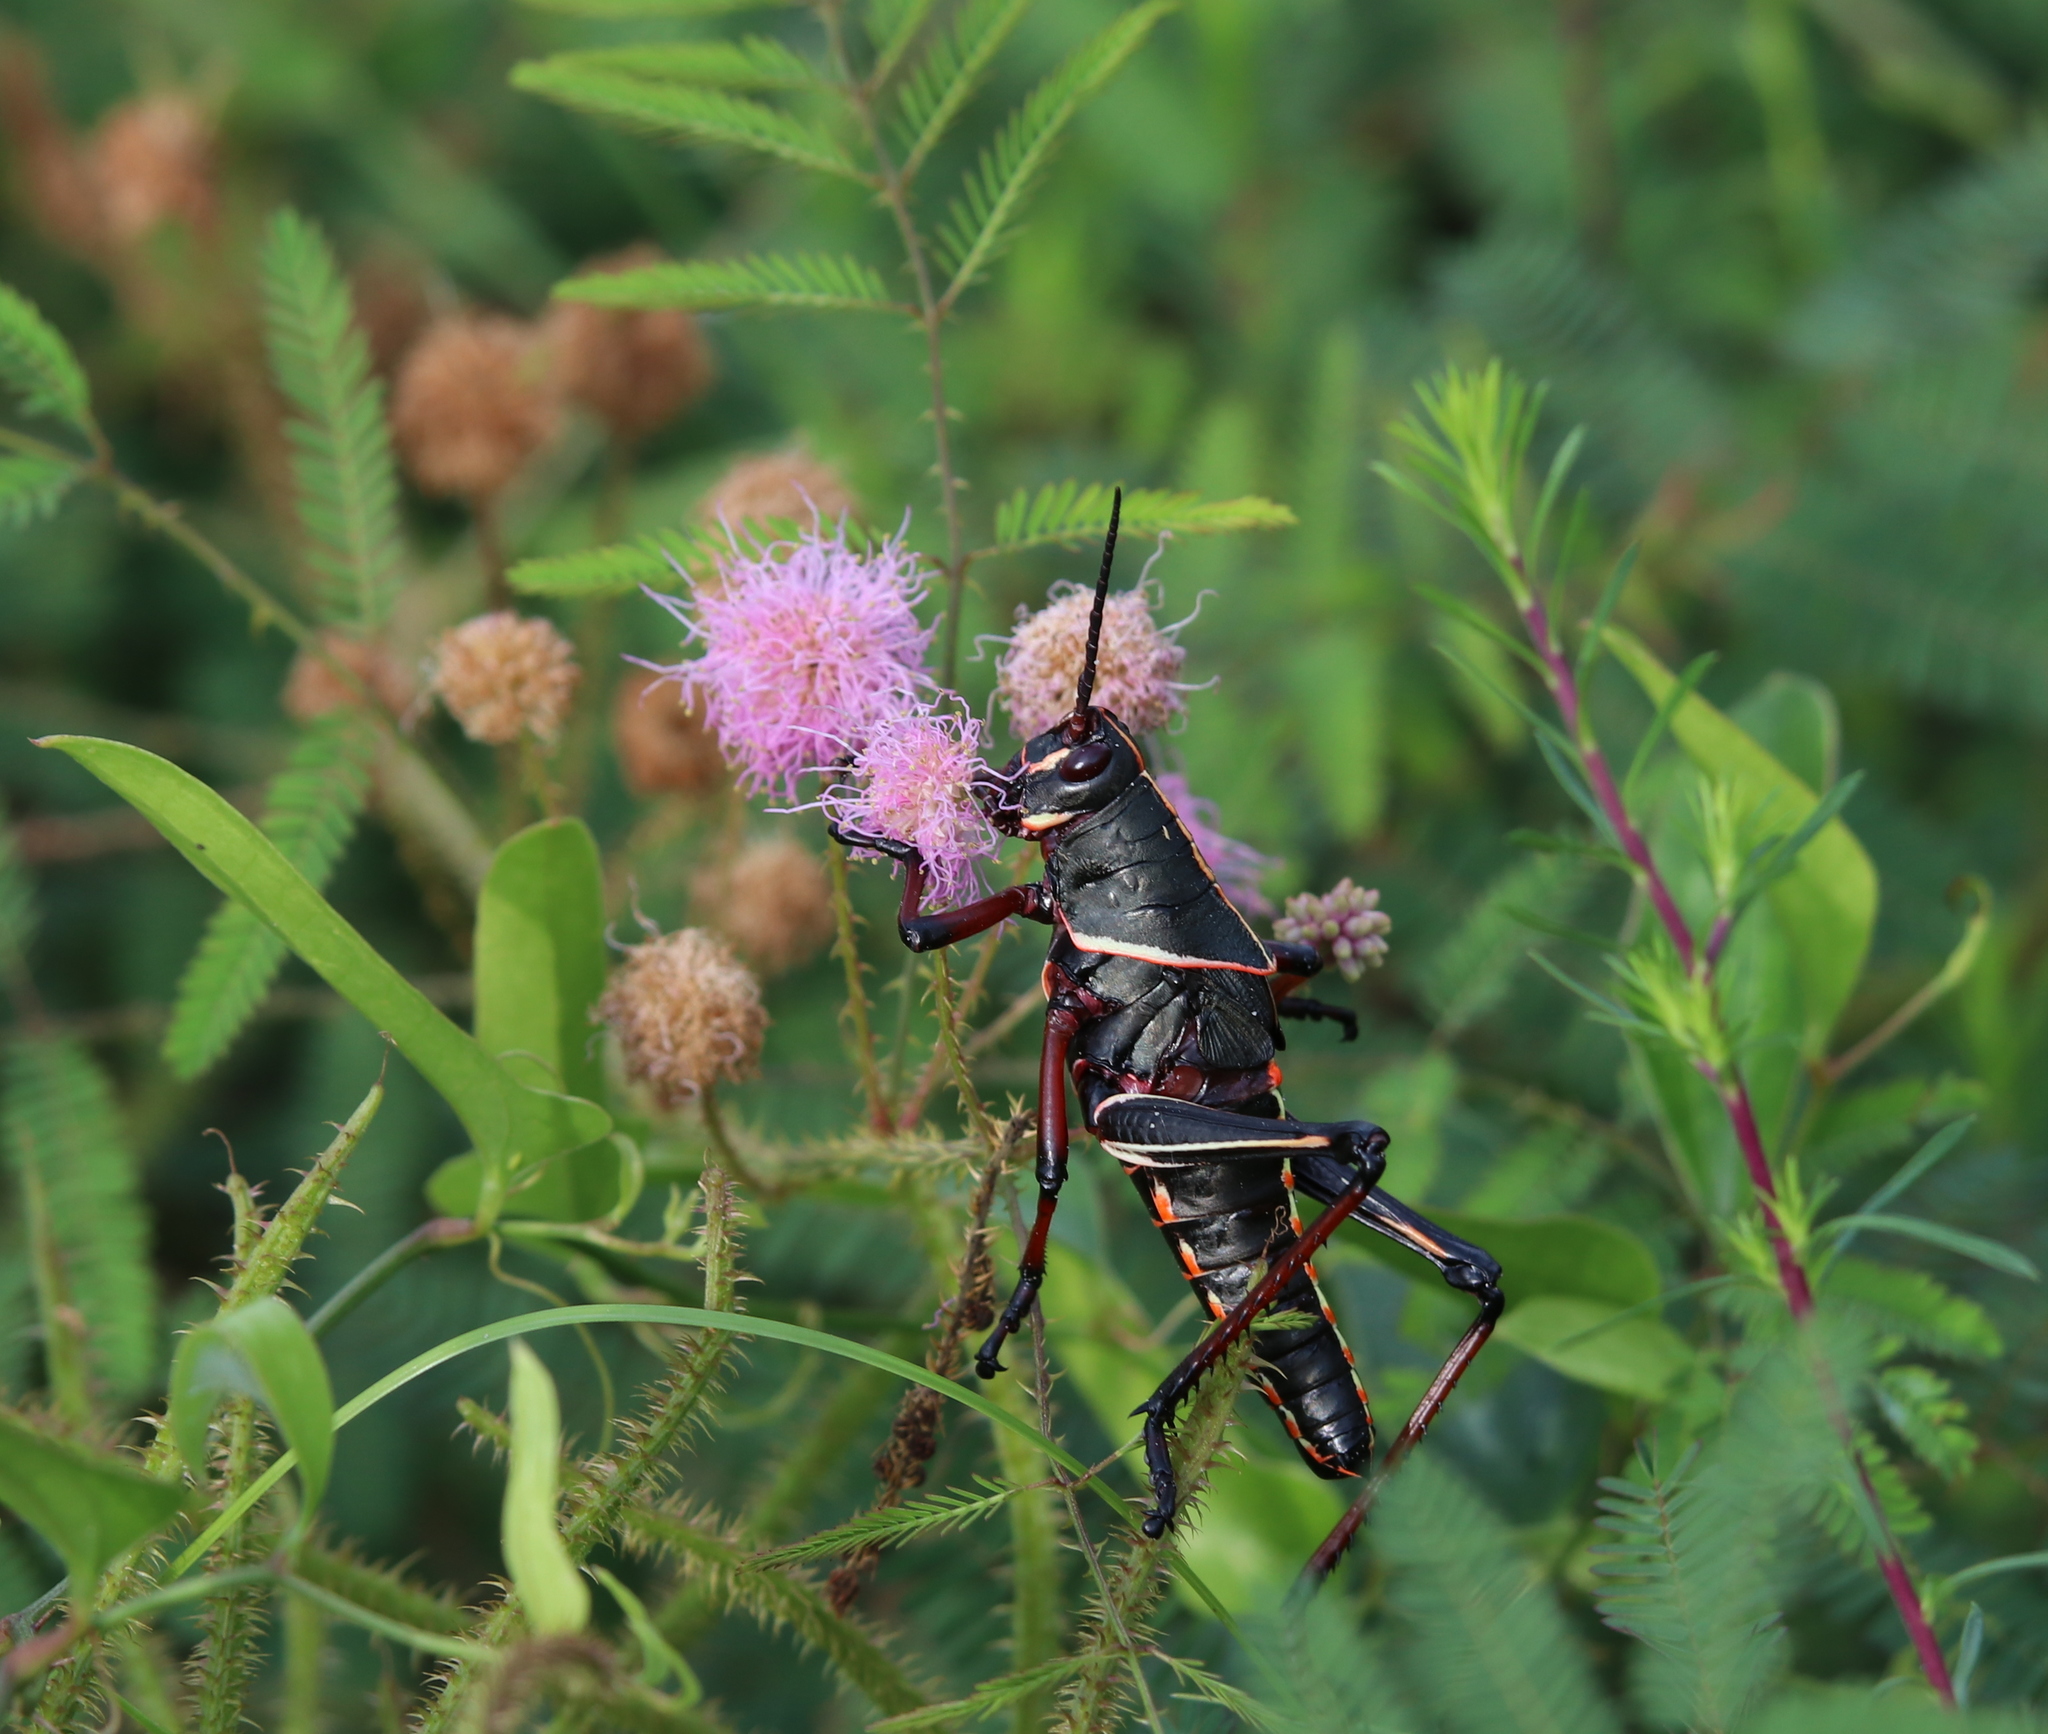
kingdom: Animalia
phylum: Arthropoda
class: Insecta
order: Orthoptera
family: Romaleidae
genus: Romalea
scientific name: Romalea microptera
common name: Eastern lubber grasshopper
